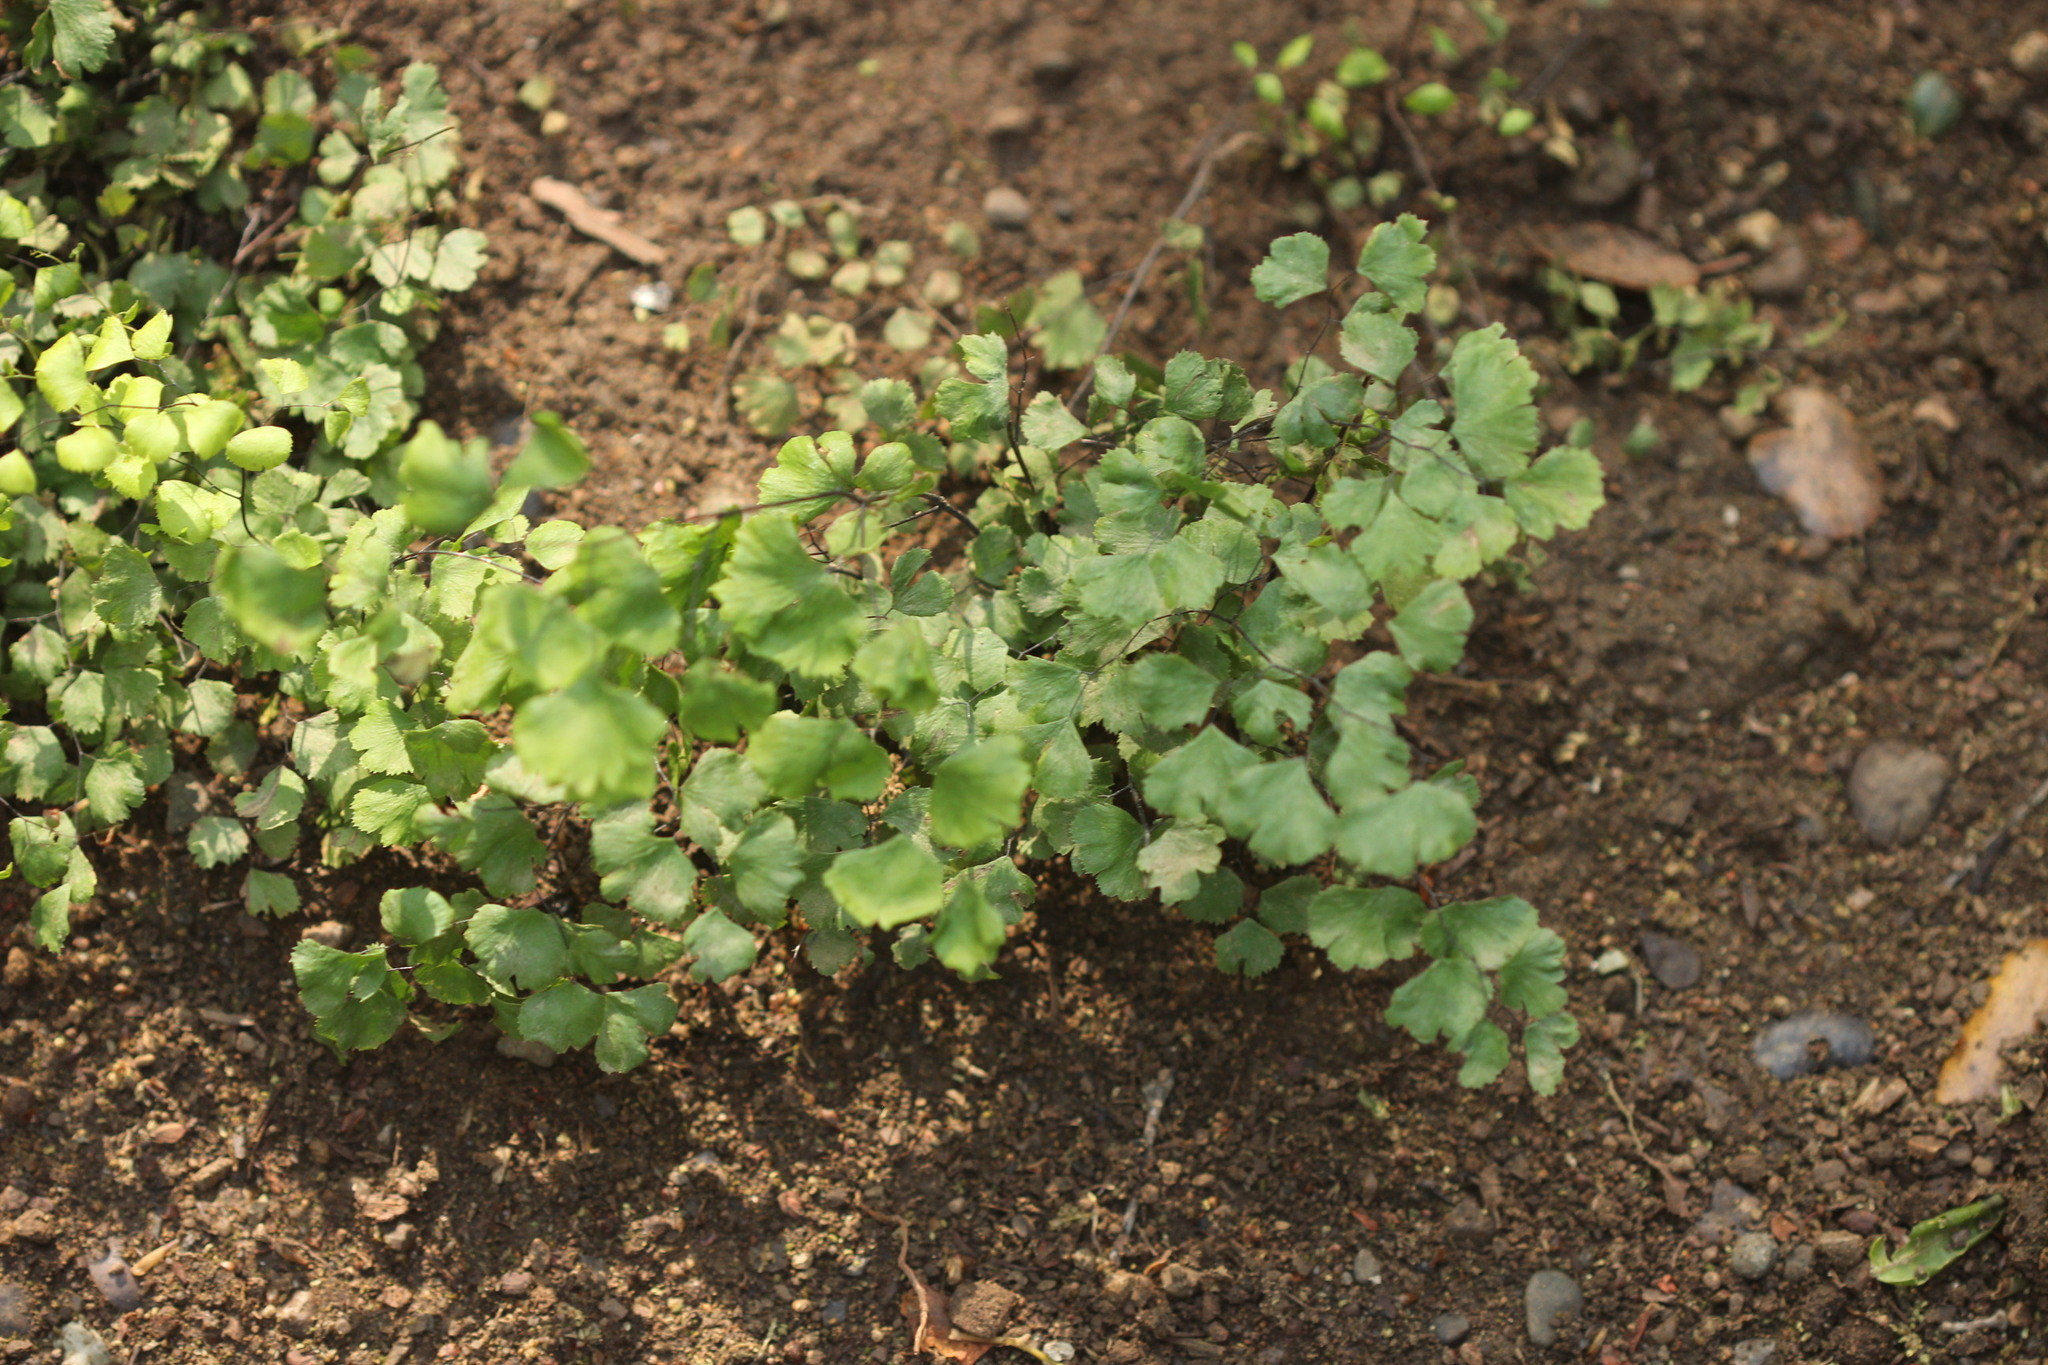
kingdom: Plantae
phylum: Tracheophyta
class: Polypodiopsida
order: Polypodiales
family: Pteridaceae
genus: Adiantum
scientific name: Adiantum capillus-veneris
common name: Maidenhair fern
